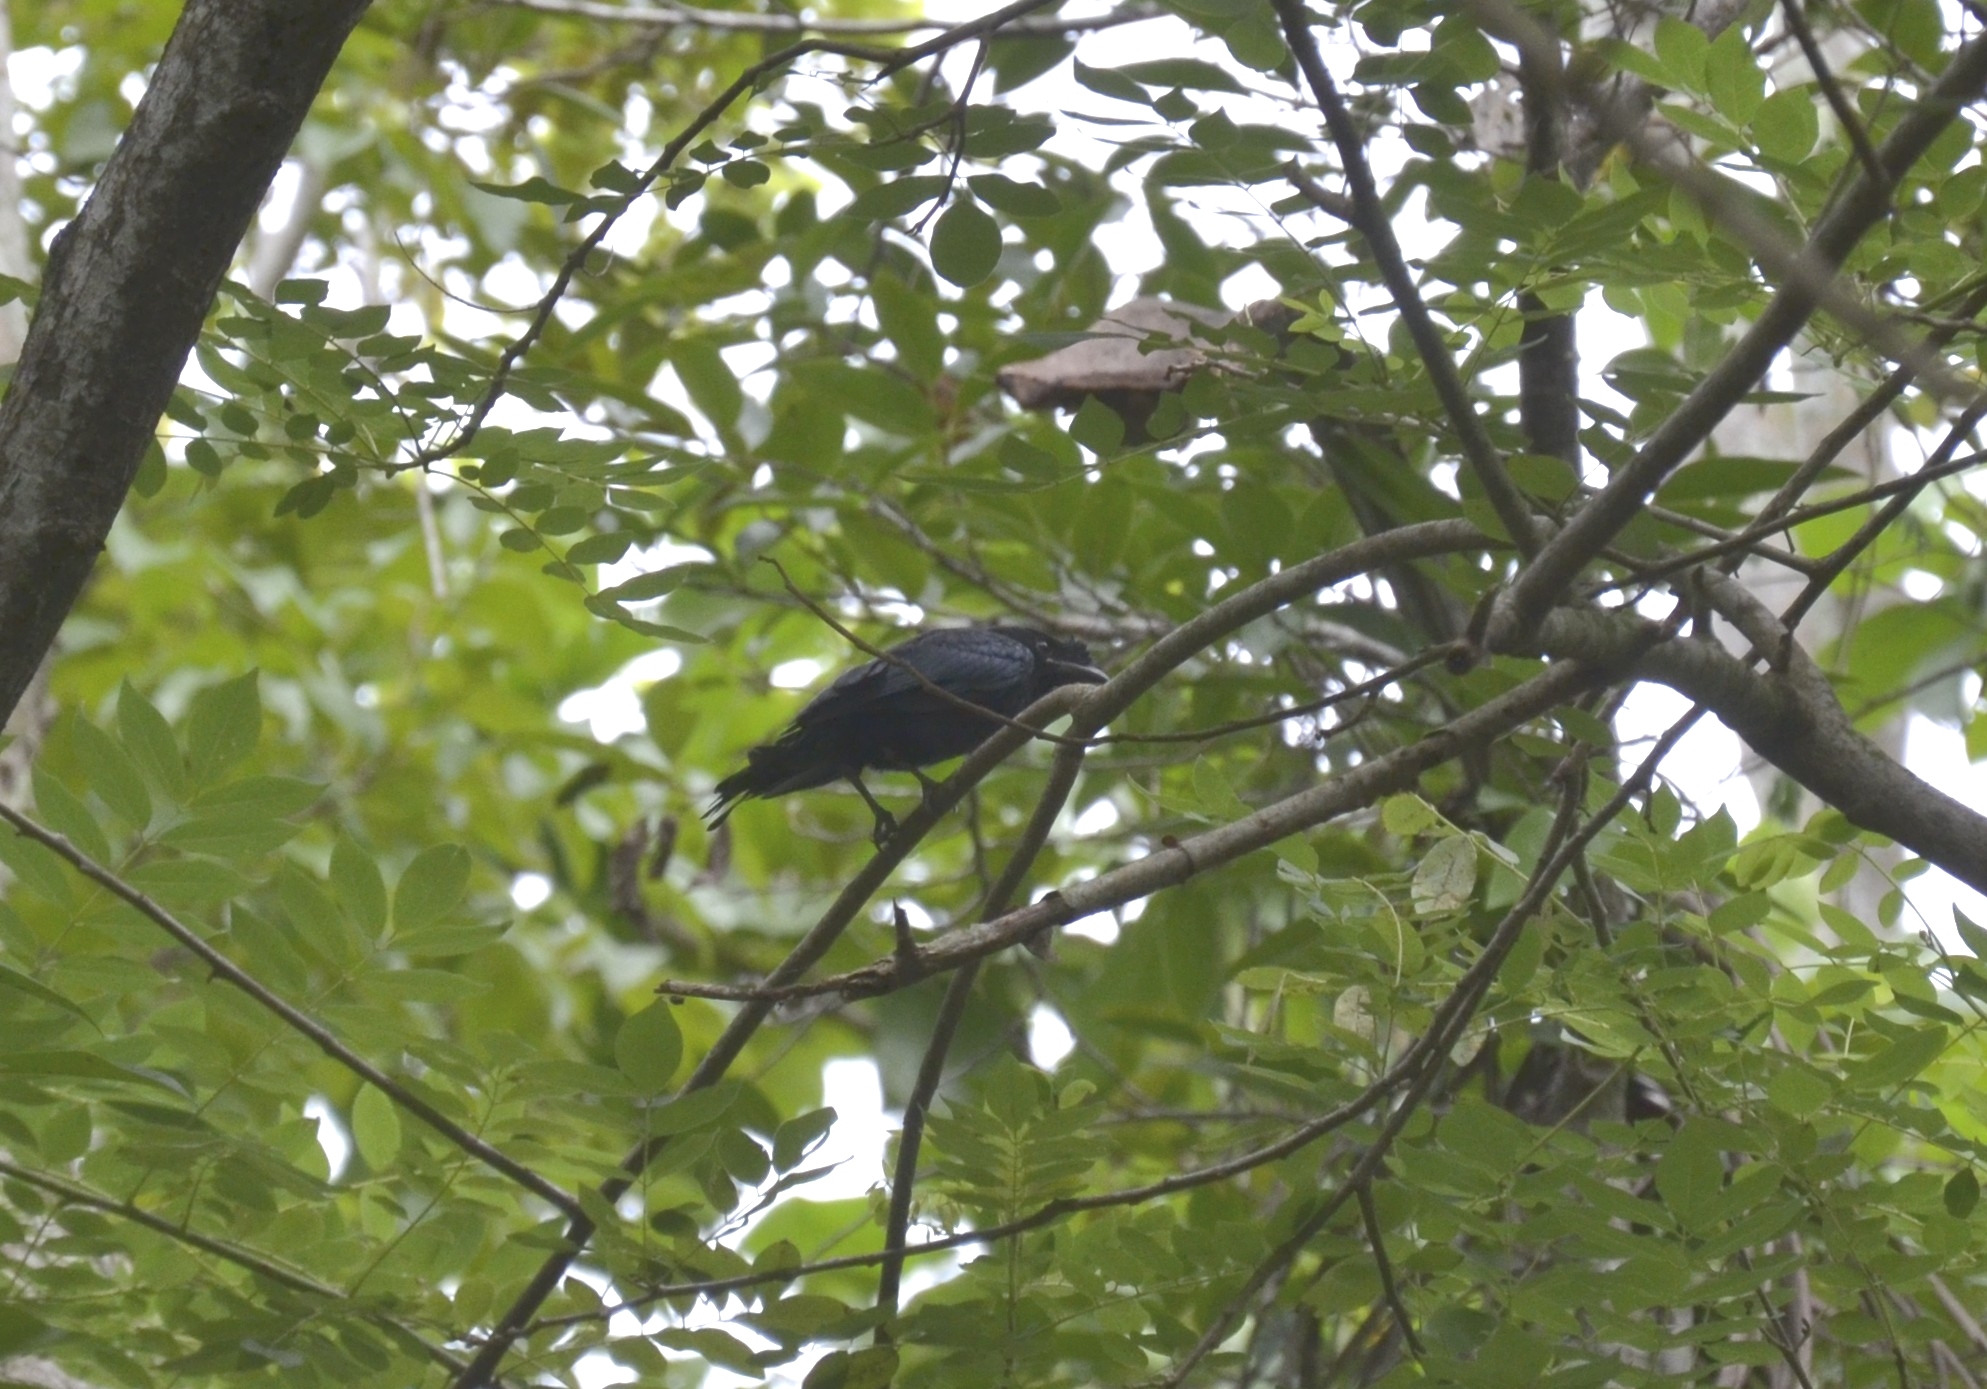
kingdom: Animalia
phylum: Chordata
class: Aves
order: Passeriformes
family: Dicruridae
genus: Dicrurus
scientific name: Dicrurus paradiseus
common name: Greater racket-tailed drongo
